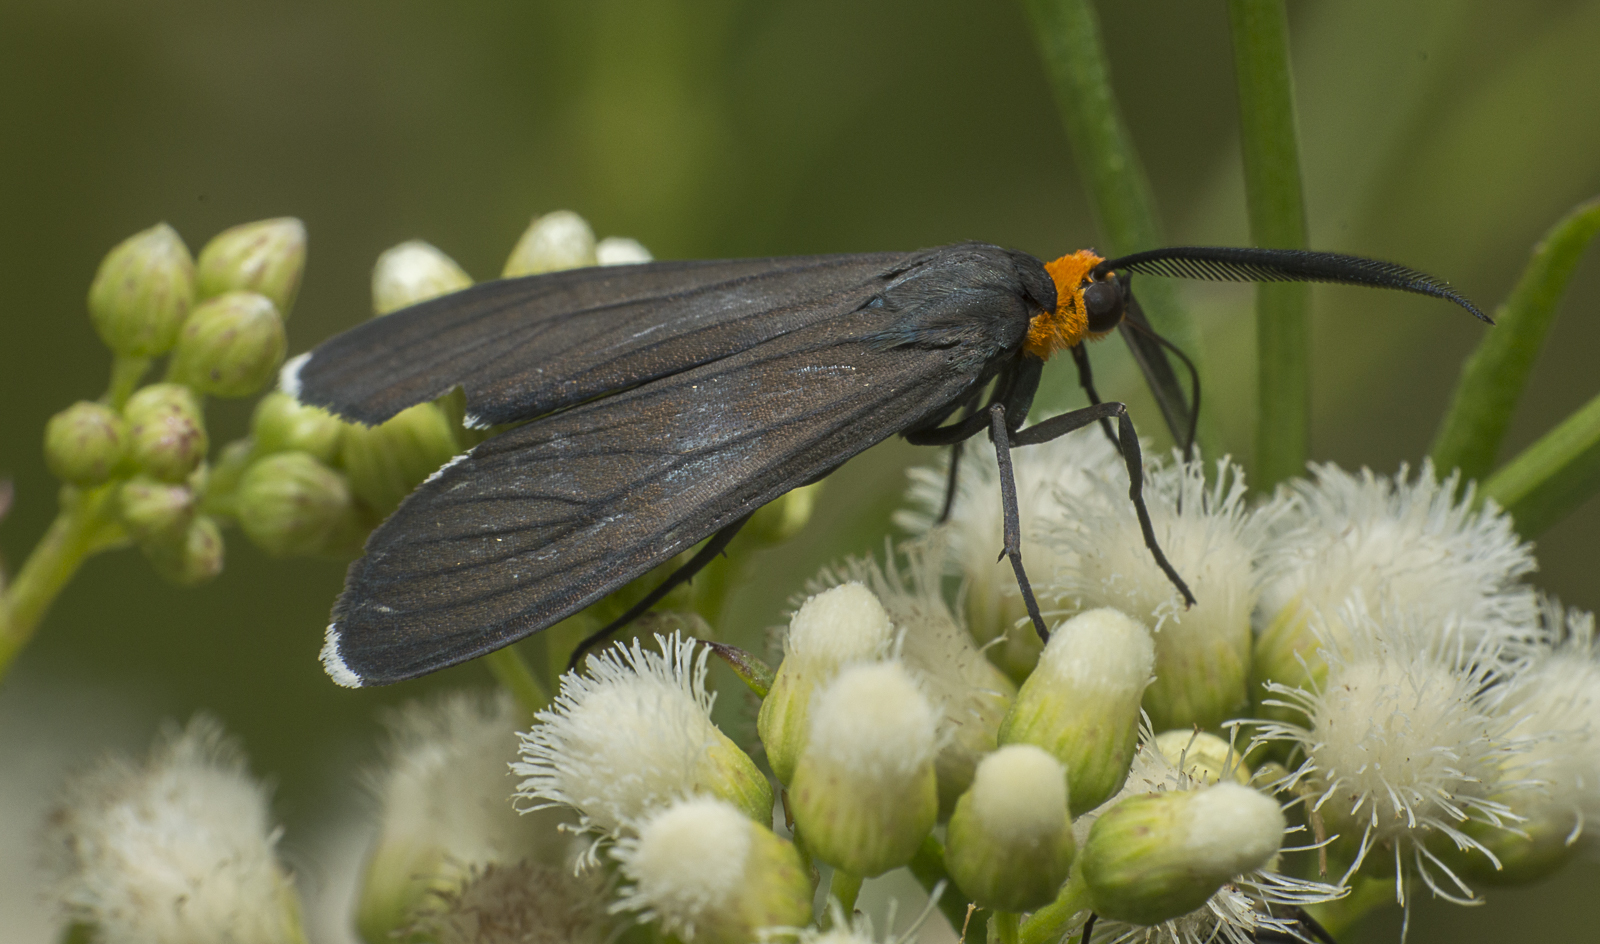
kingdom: Animalia
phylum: Arthropoda
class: Insecta
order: Lepidoptera
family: Erebidae
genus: Ctenucha
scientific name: Ctenucha rubriceps
